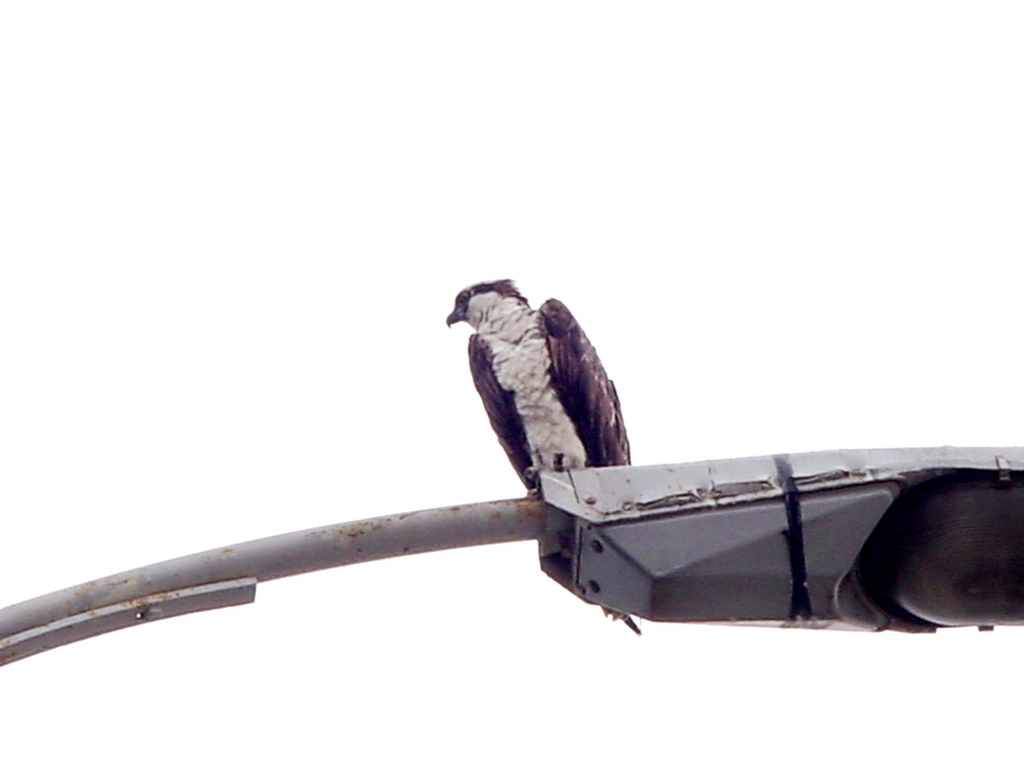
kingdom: Animalia
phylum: Chordata
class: Aves
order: Accipitriformes
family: Pandionidae
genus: Pandion
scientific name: Pandion haliaetus
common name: Osprey
